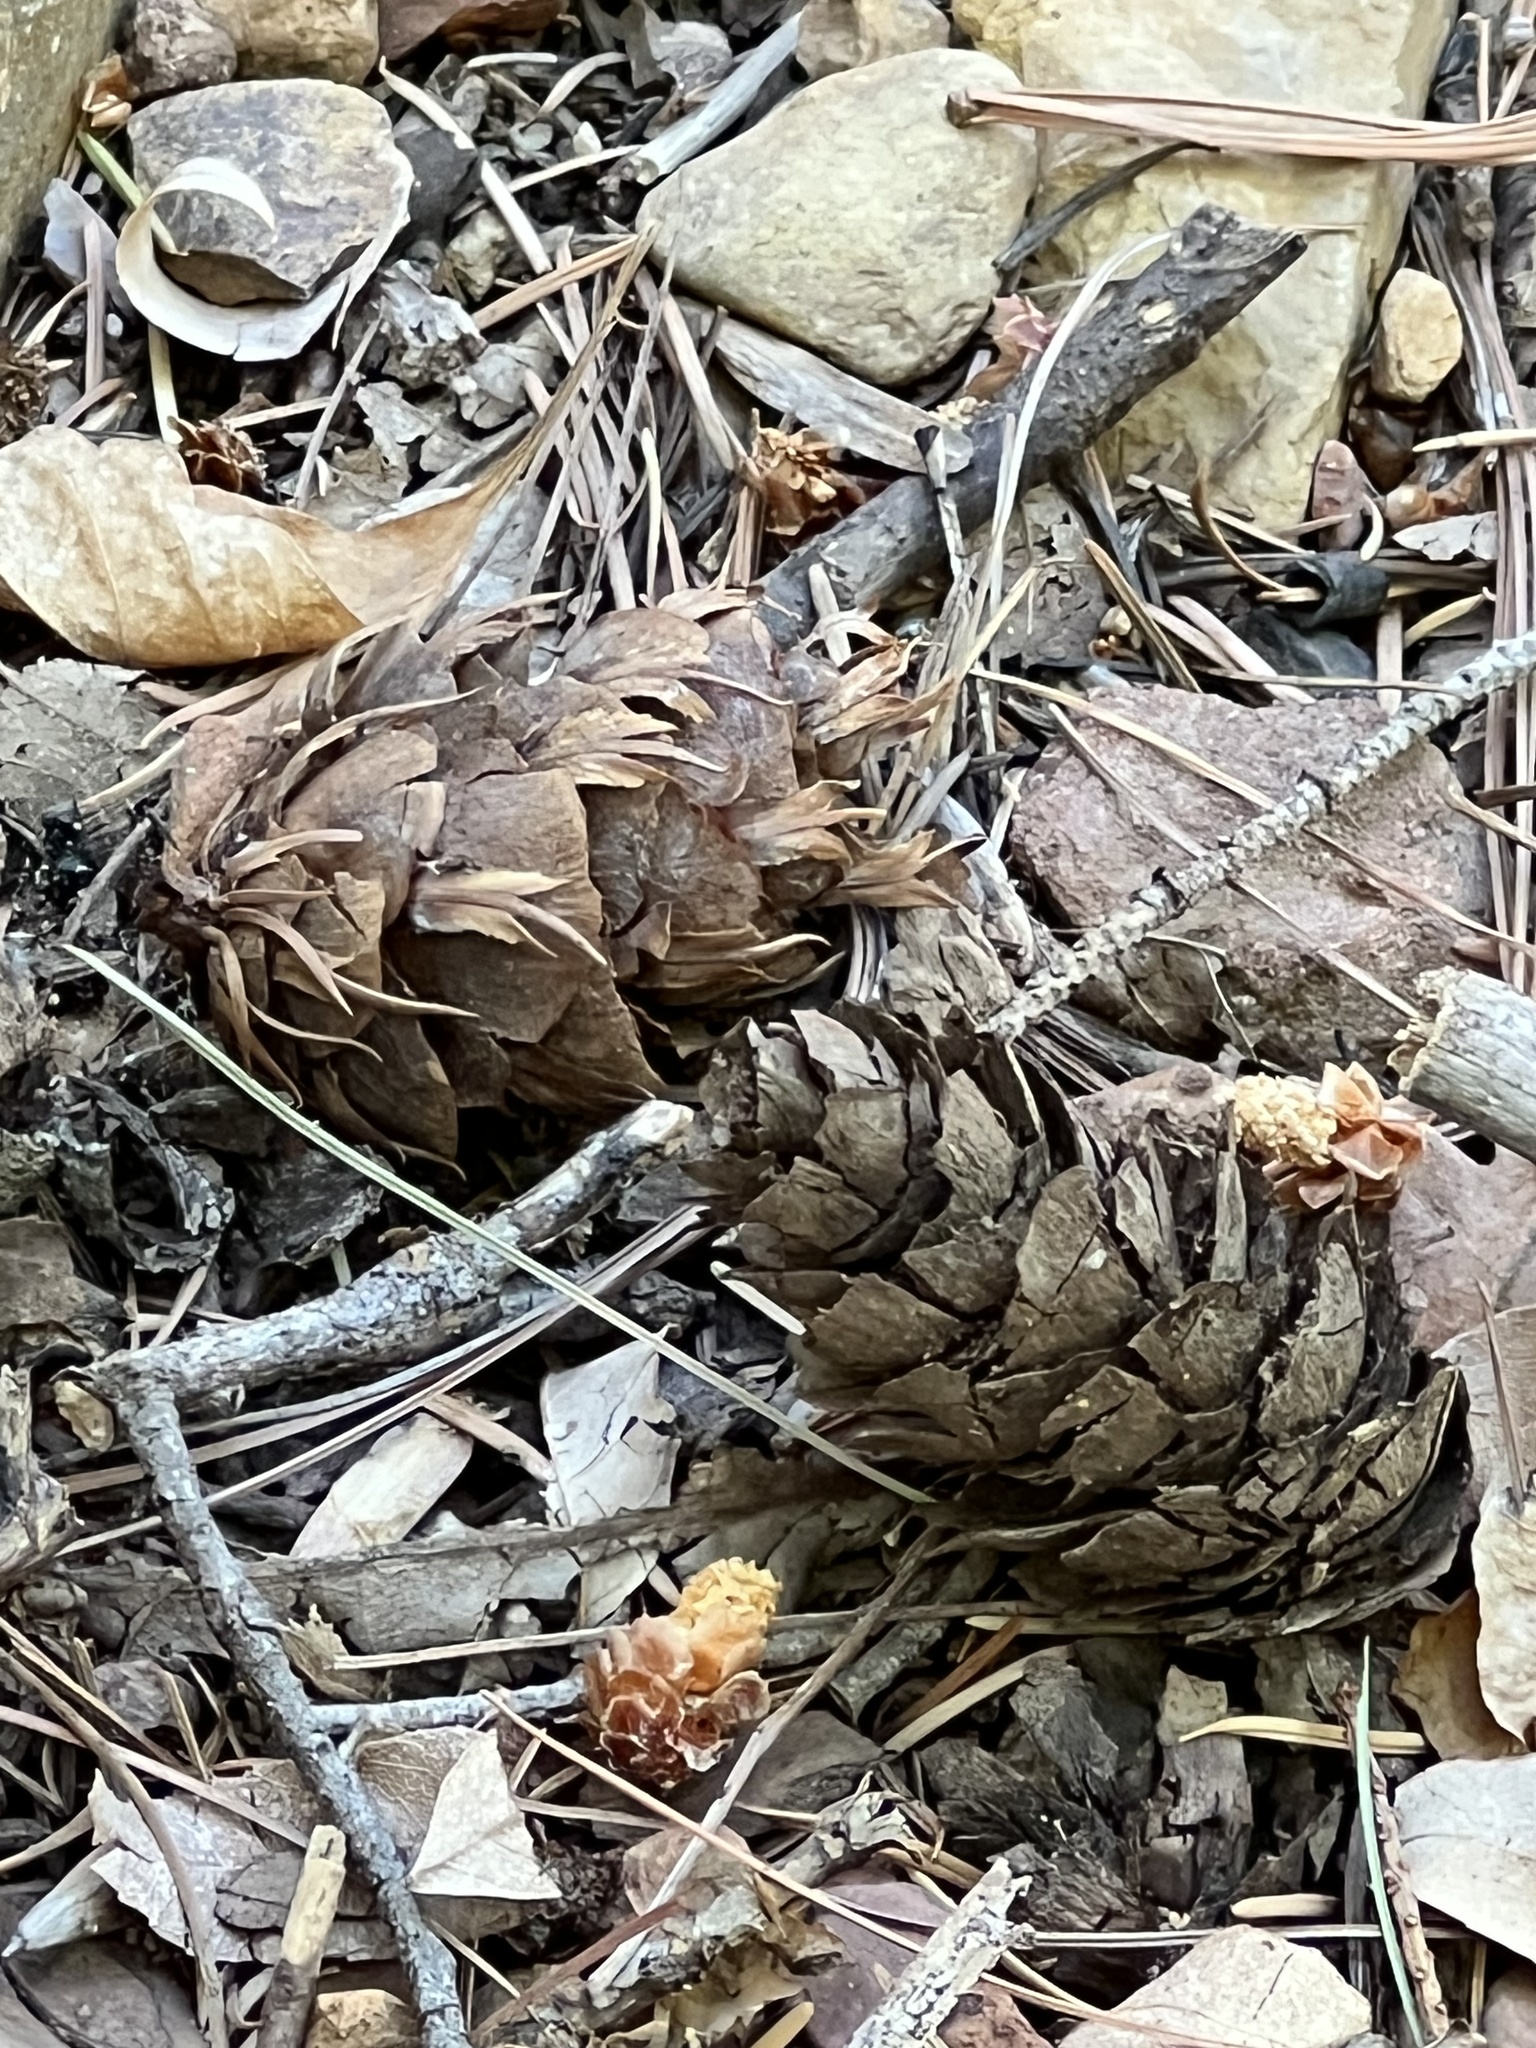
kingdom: Plantae
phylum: Tracheophyta
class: Pinopsida
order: Pinales
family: Pinaceae
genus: Pseudotsuga
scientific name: Pseudotsuga menziesii
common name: Douglas fir
